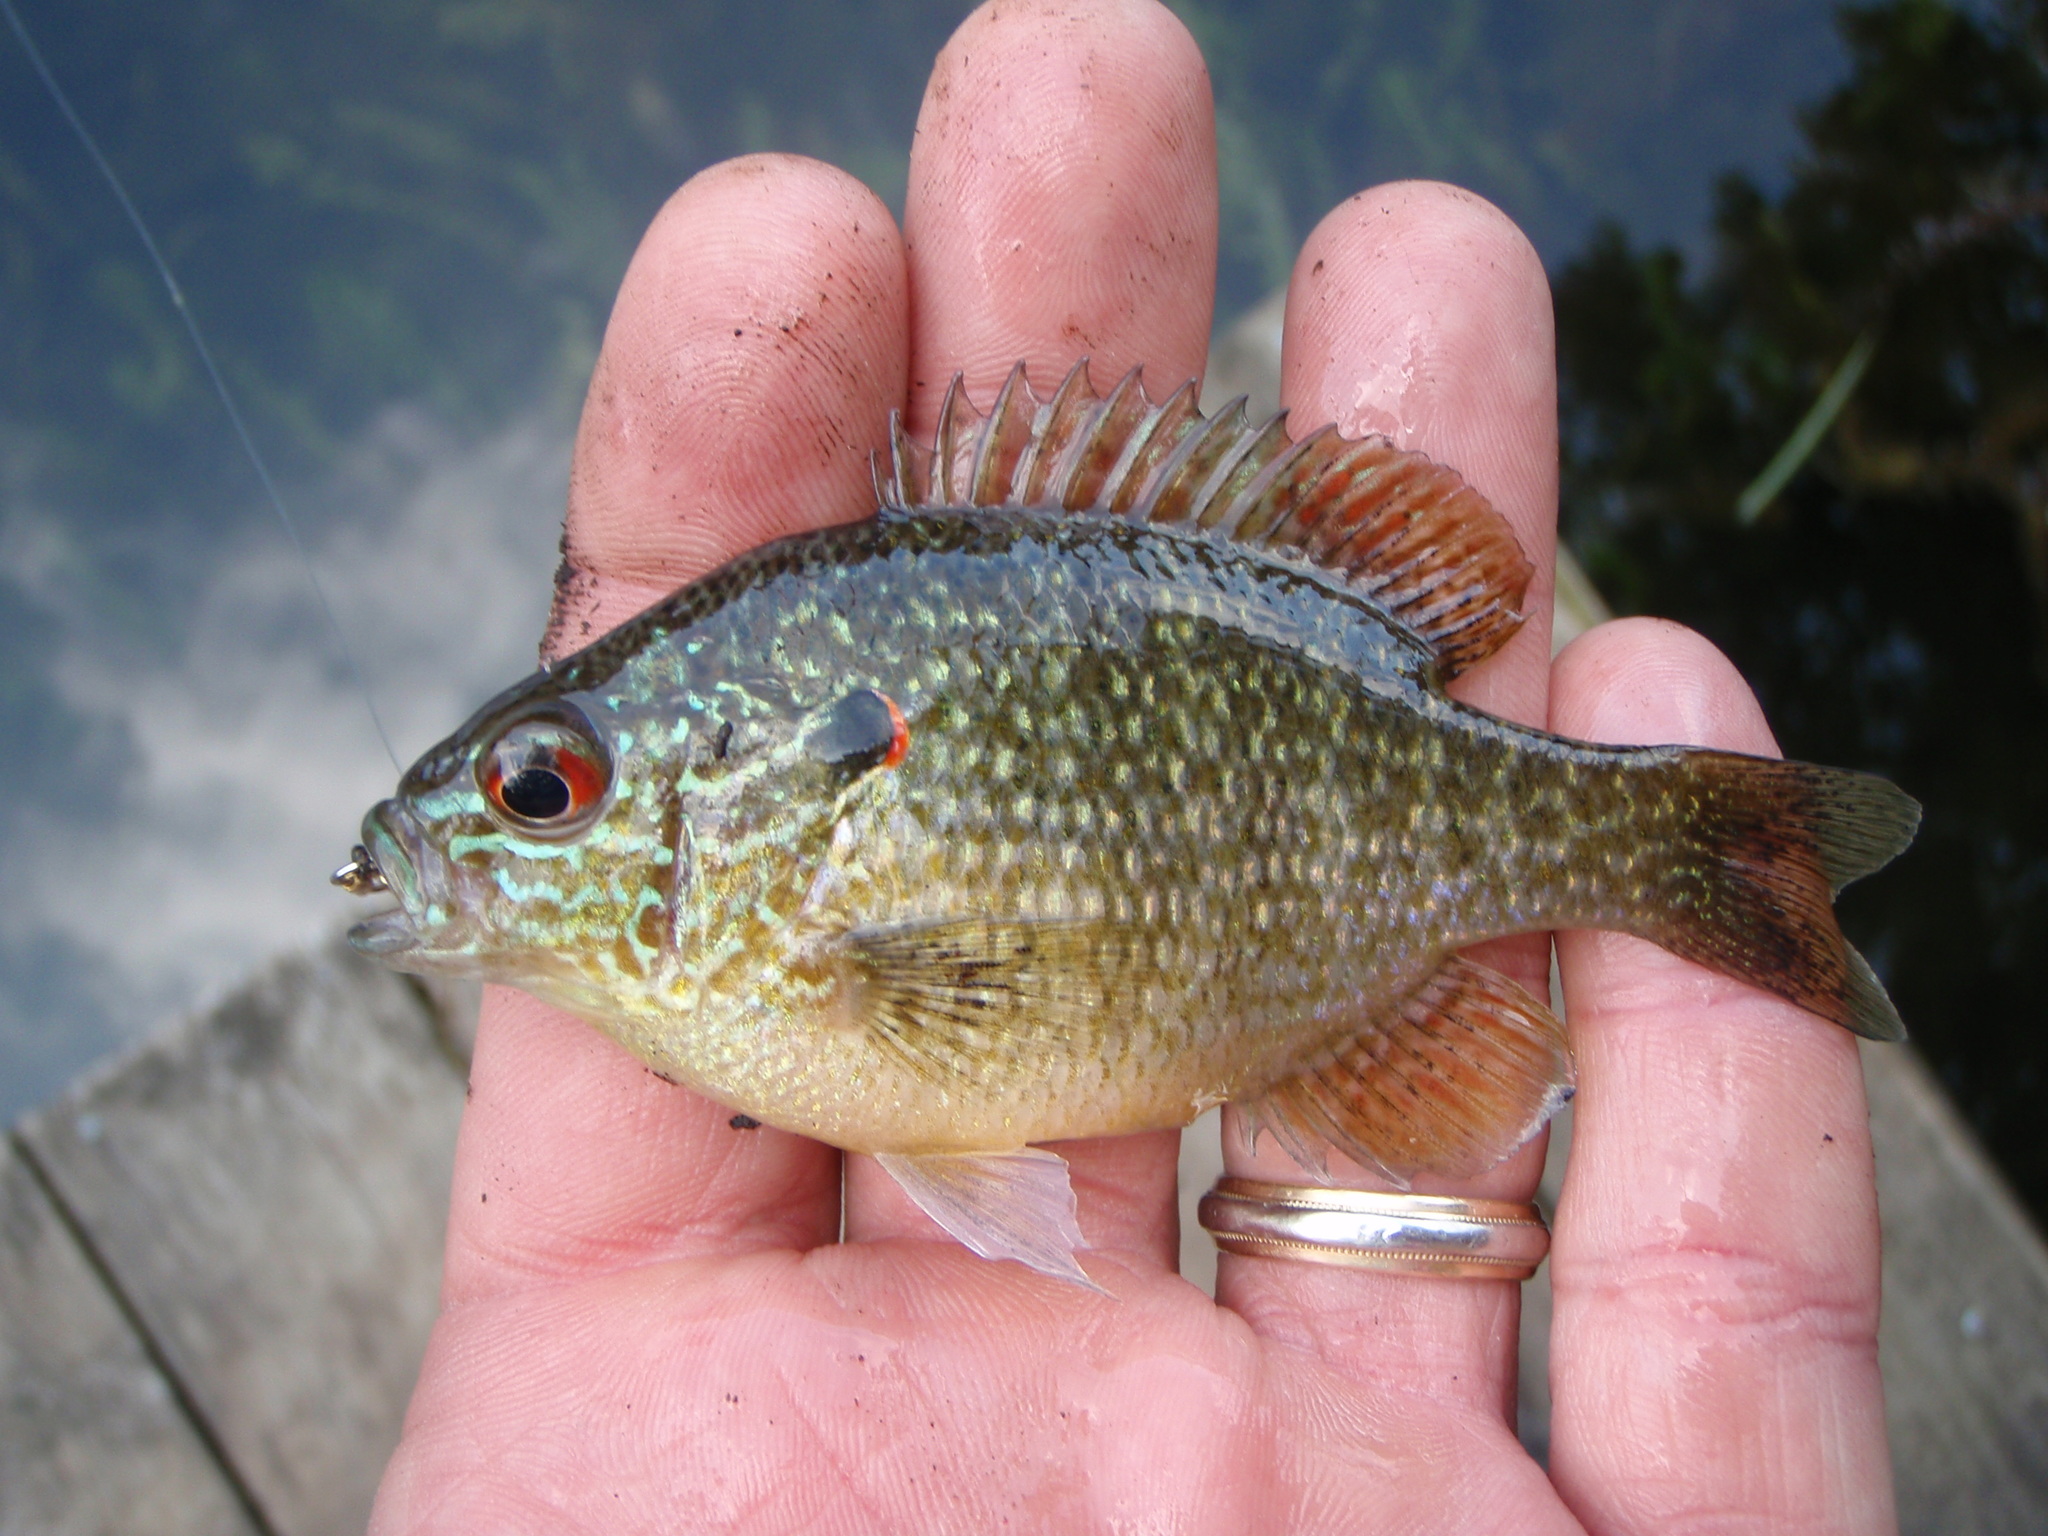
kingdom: Animalia
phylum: Chordata
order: Perciformes
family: Centrarchidae
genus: Lepomis
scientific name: Lepomis peltastes
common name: Northern sunfish
